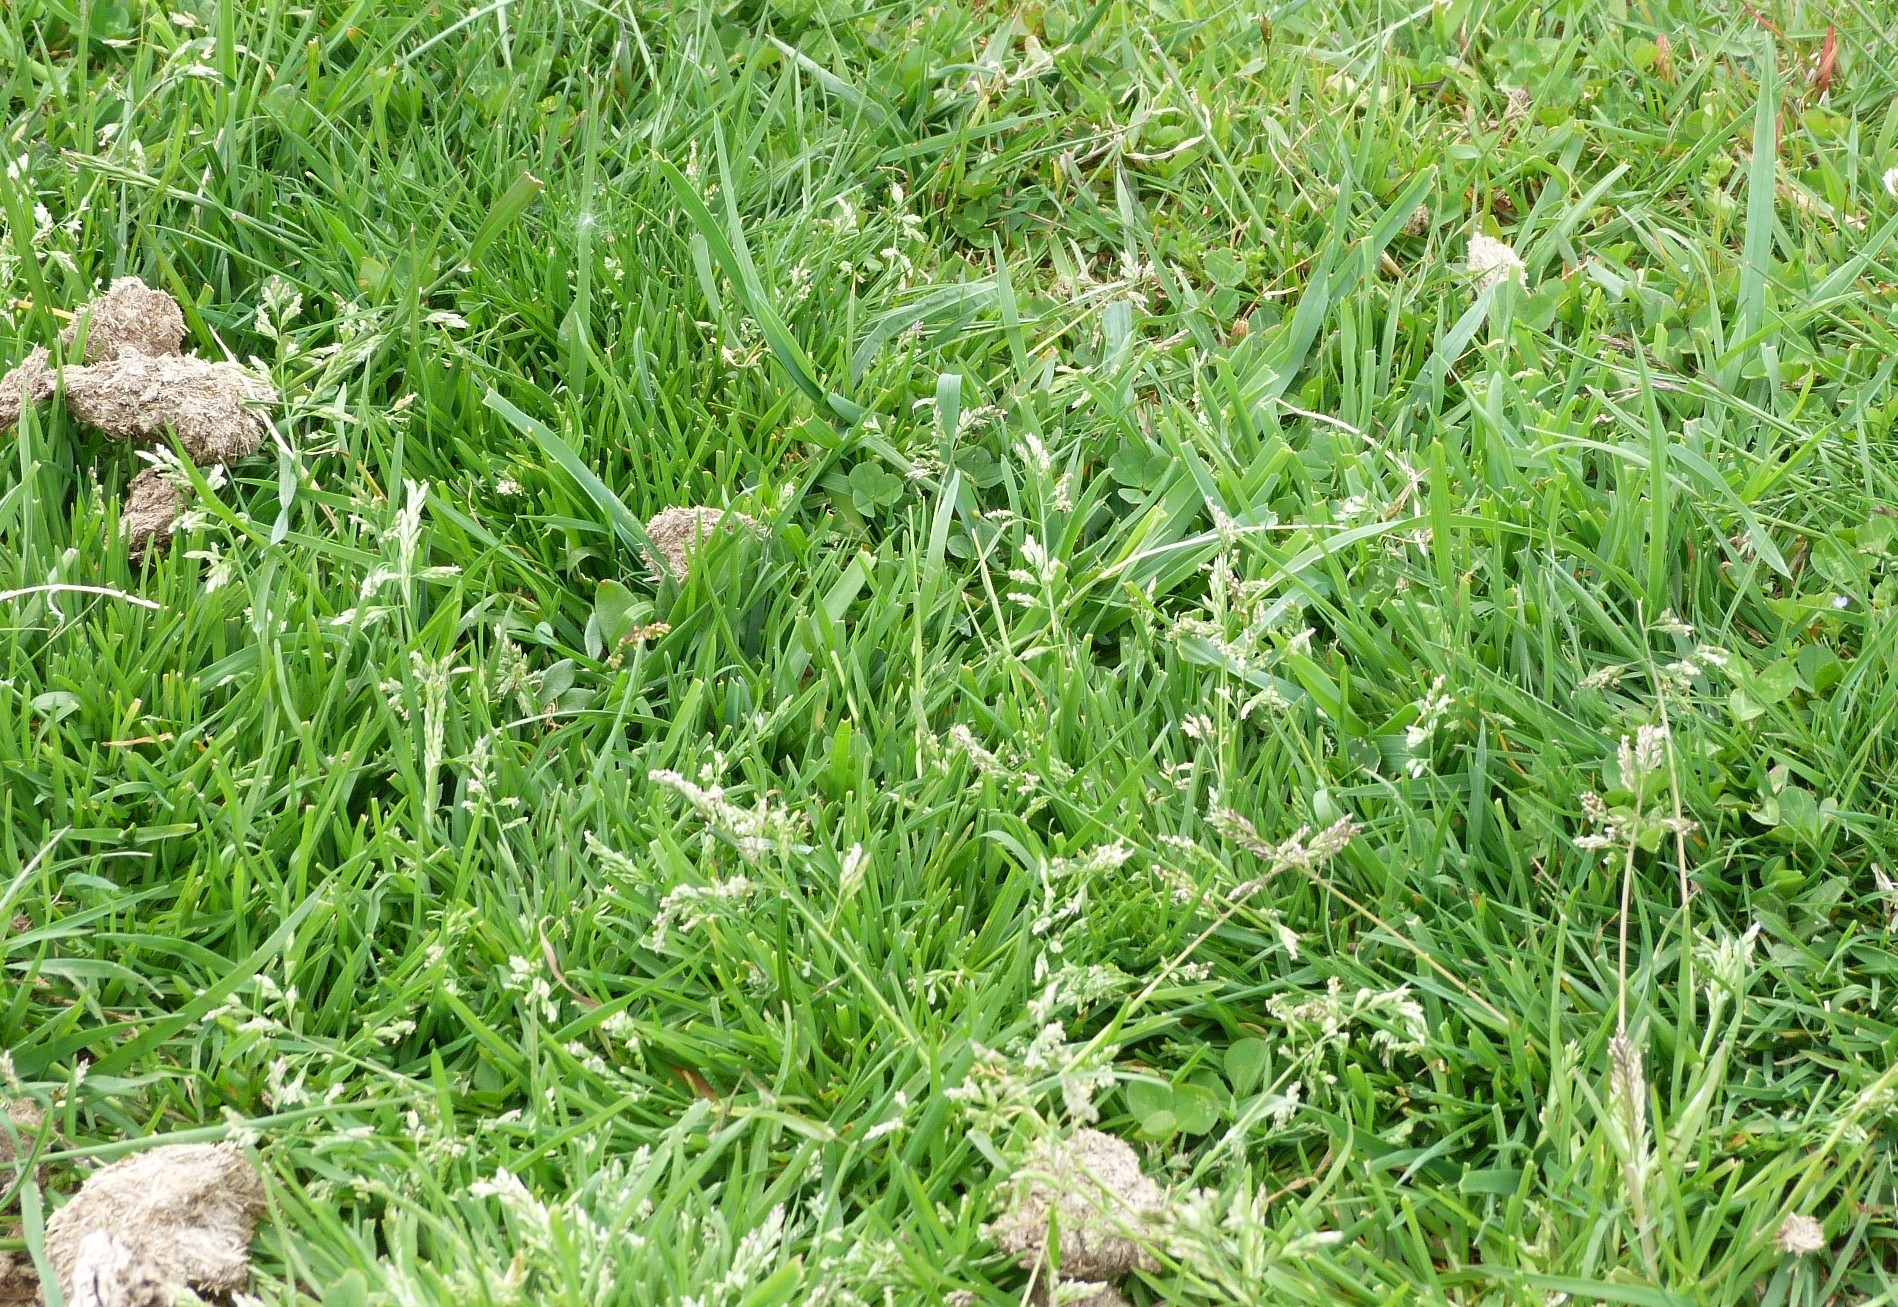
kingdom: Plantae
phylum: Tracheophyta
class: Liliopsida
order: Poales
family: Poaceae
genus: Poa
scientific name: Poa annua
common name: Annual bluegrass
